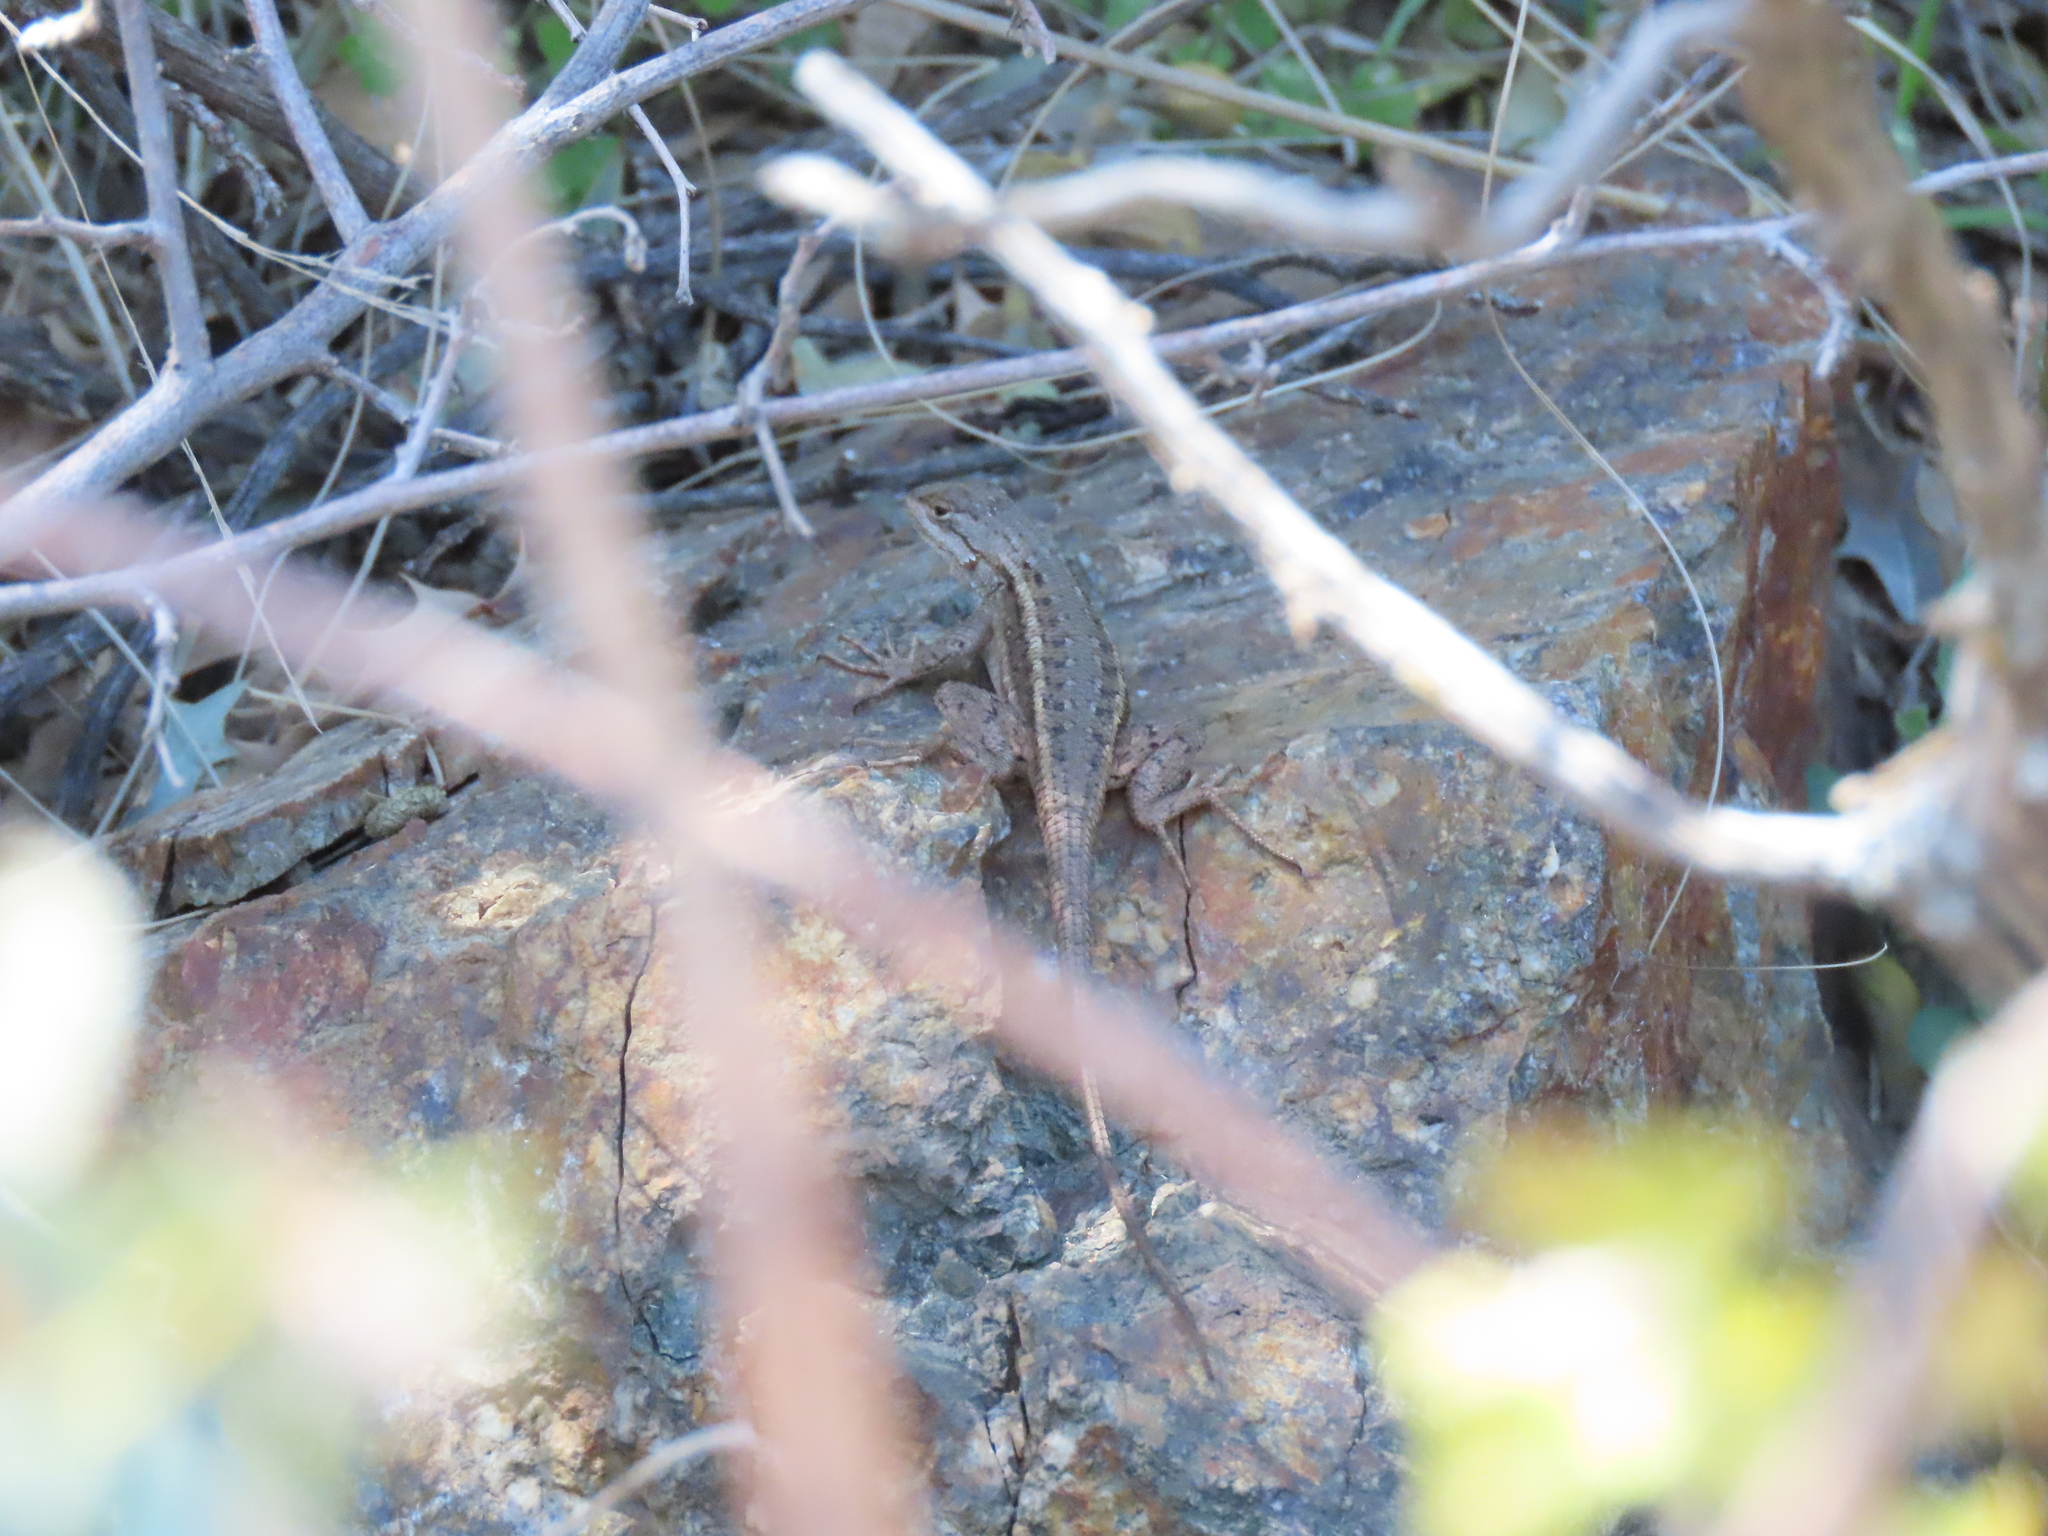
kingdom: Animalia
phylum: Chordata
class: Squamata
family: Phrynosomatidae
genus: Sceloporus
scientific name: Sceloporus tristichus
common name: Plateau fence lizard
